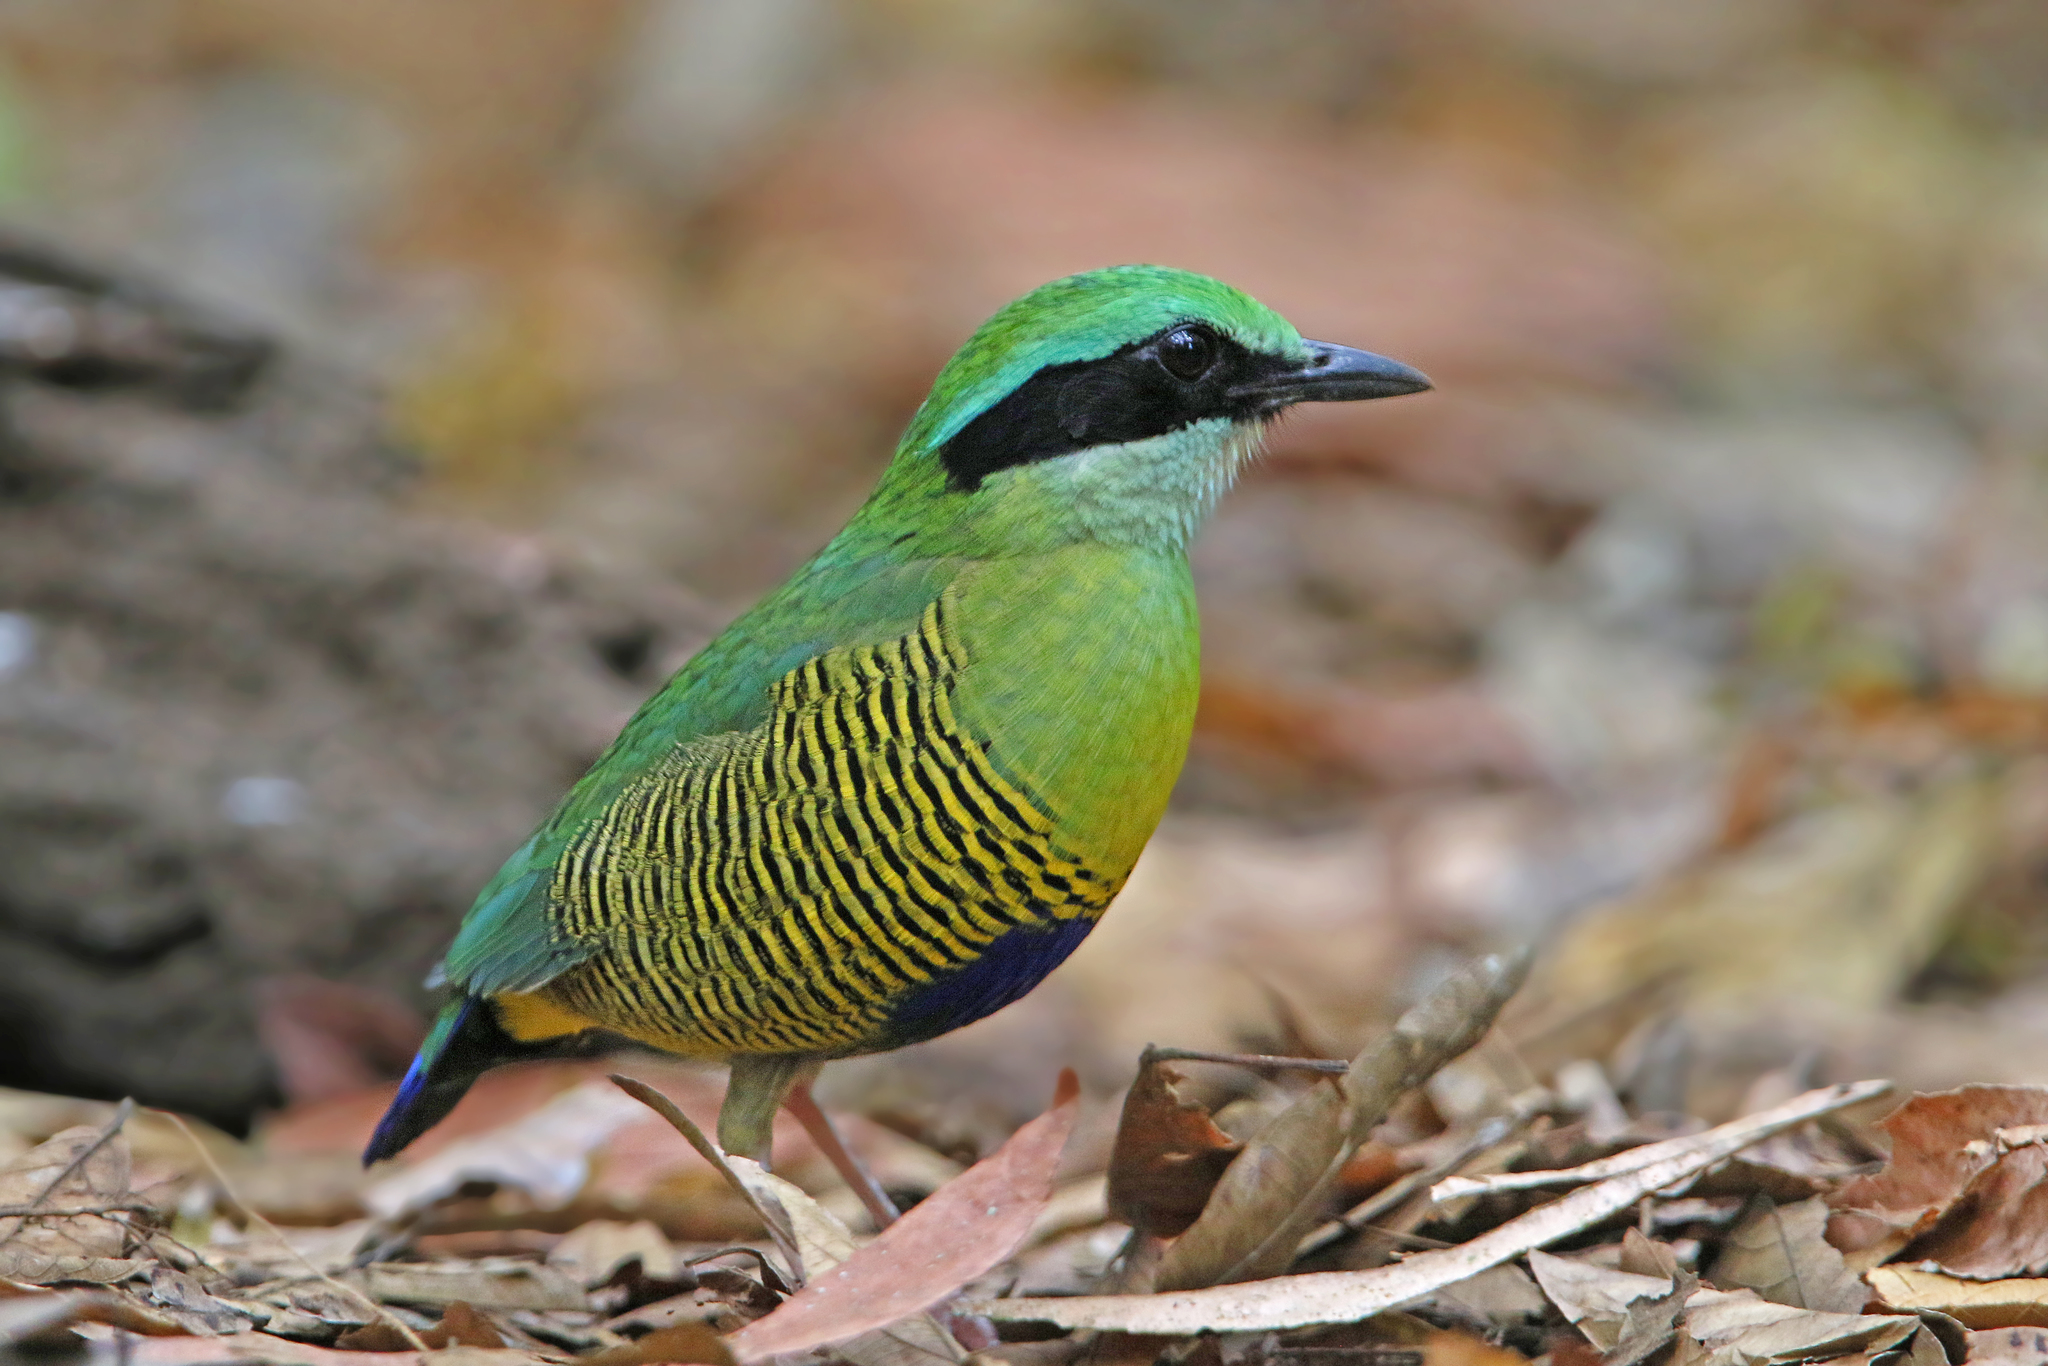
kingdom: Animalia
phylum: Chordata
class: Aves
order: Passeriformes
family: Pittidae
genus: Pitta
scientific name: Pitta elliotii
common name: Bar-bellied pitta
